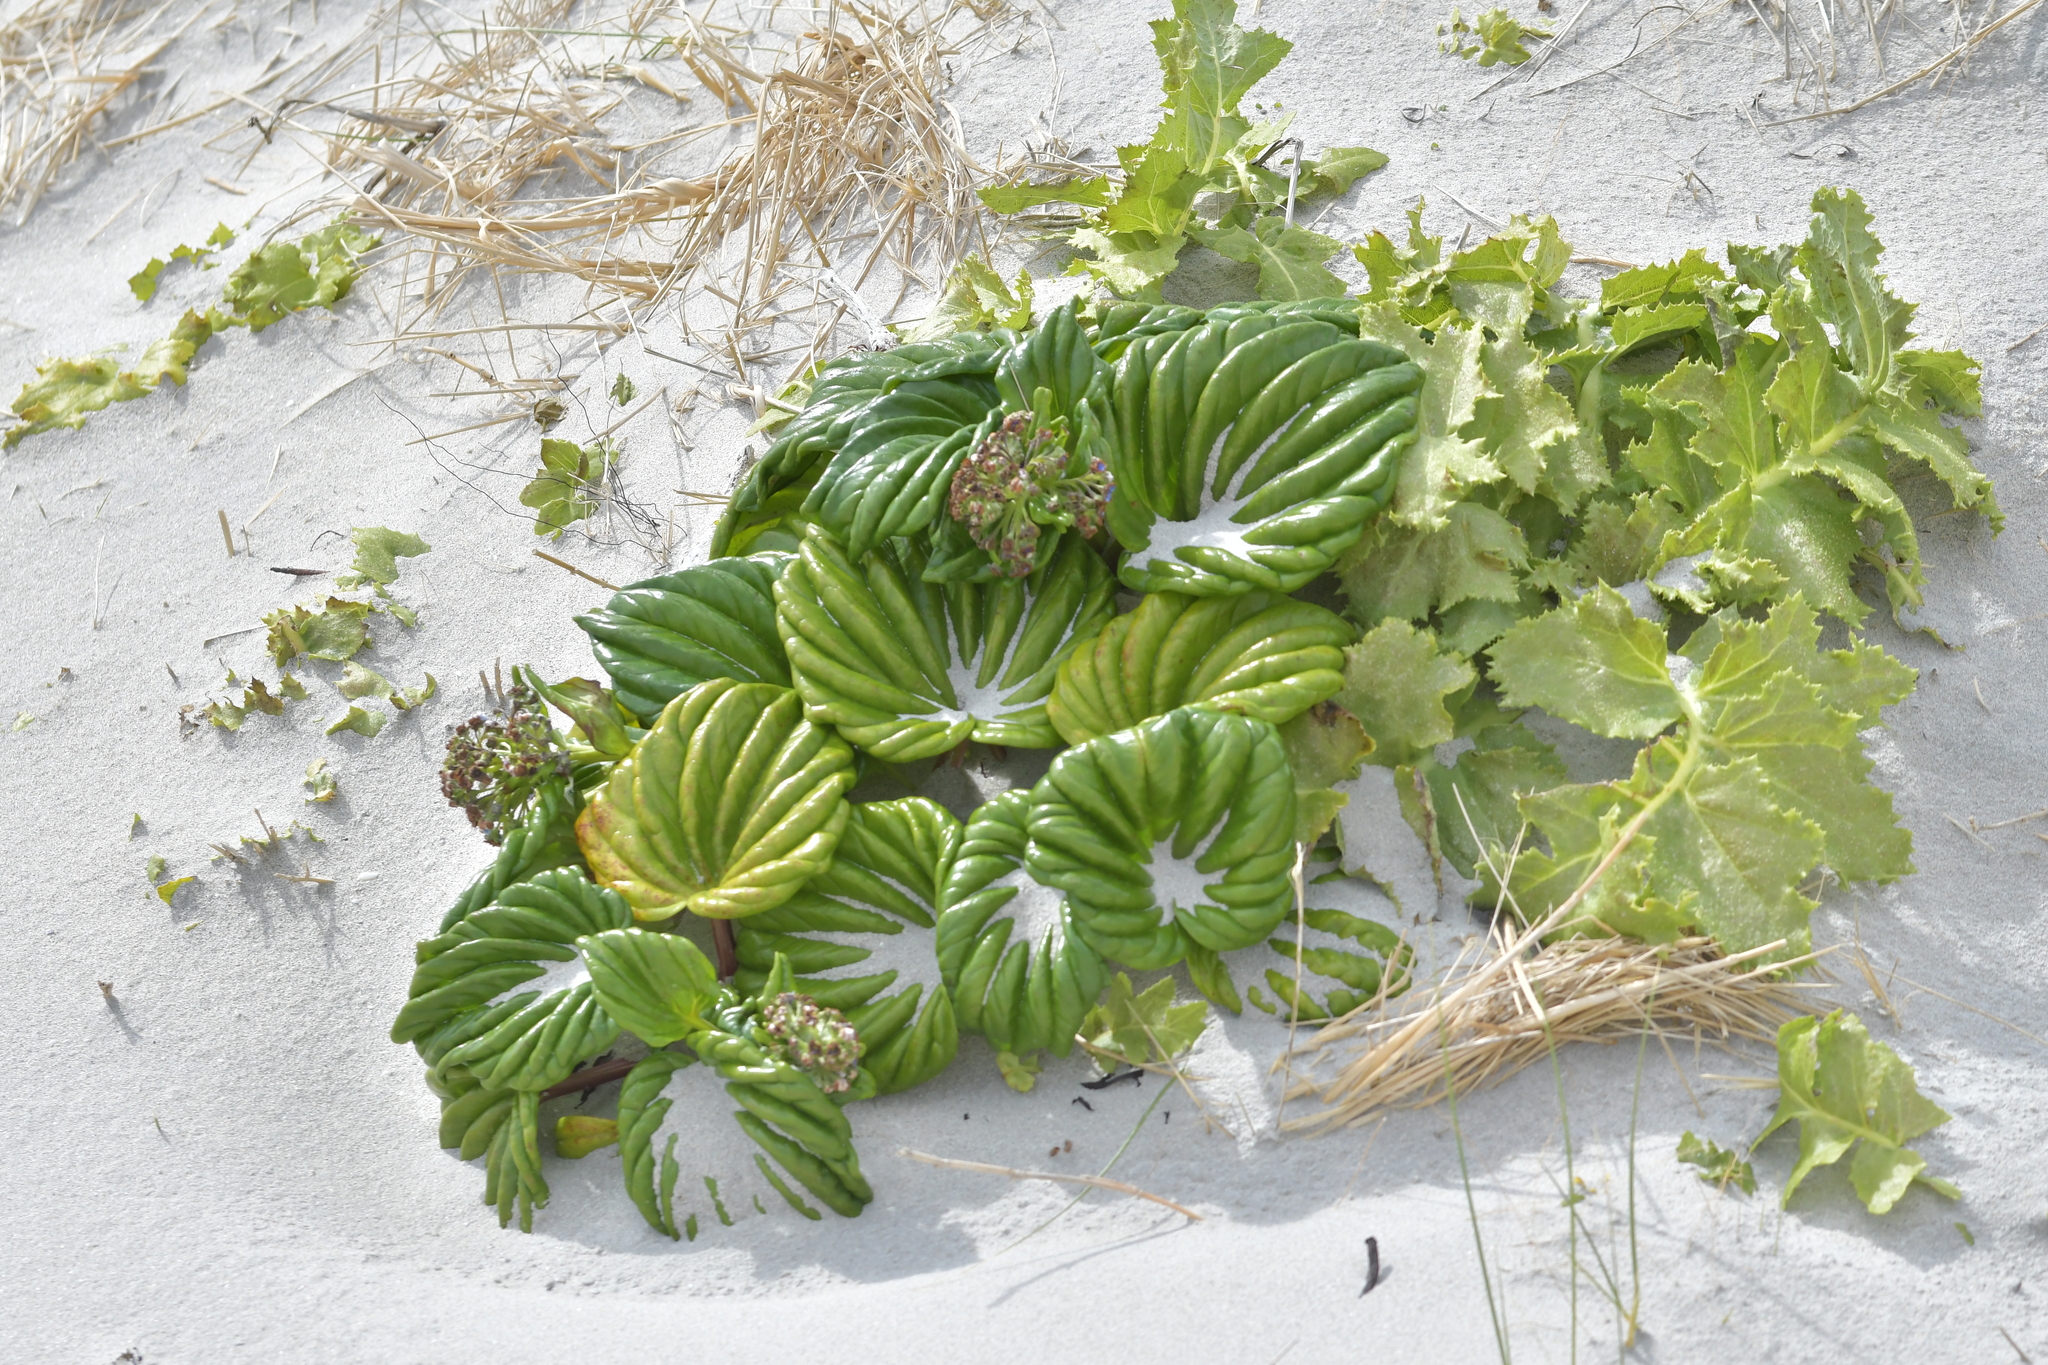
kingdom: Plantae
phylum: Tracheophyta
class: Magnoliopsida
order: Boraginales
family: Boraginaceae
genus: Myosotidium
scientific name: Myosotidium hortensia
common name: Giant forget-me-not
